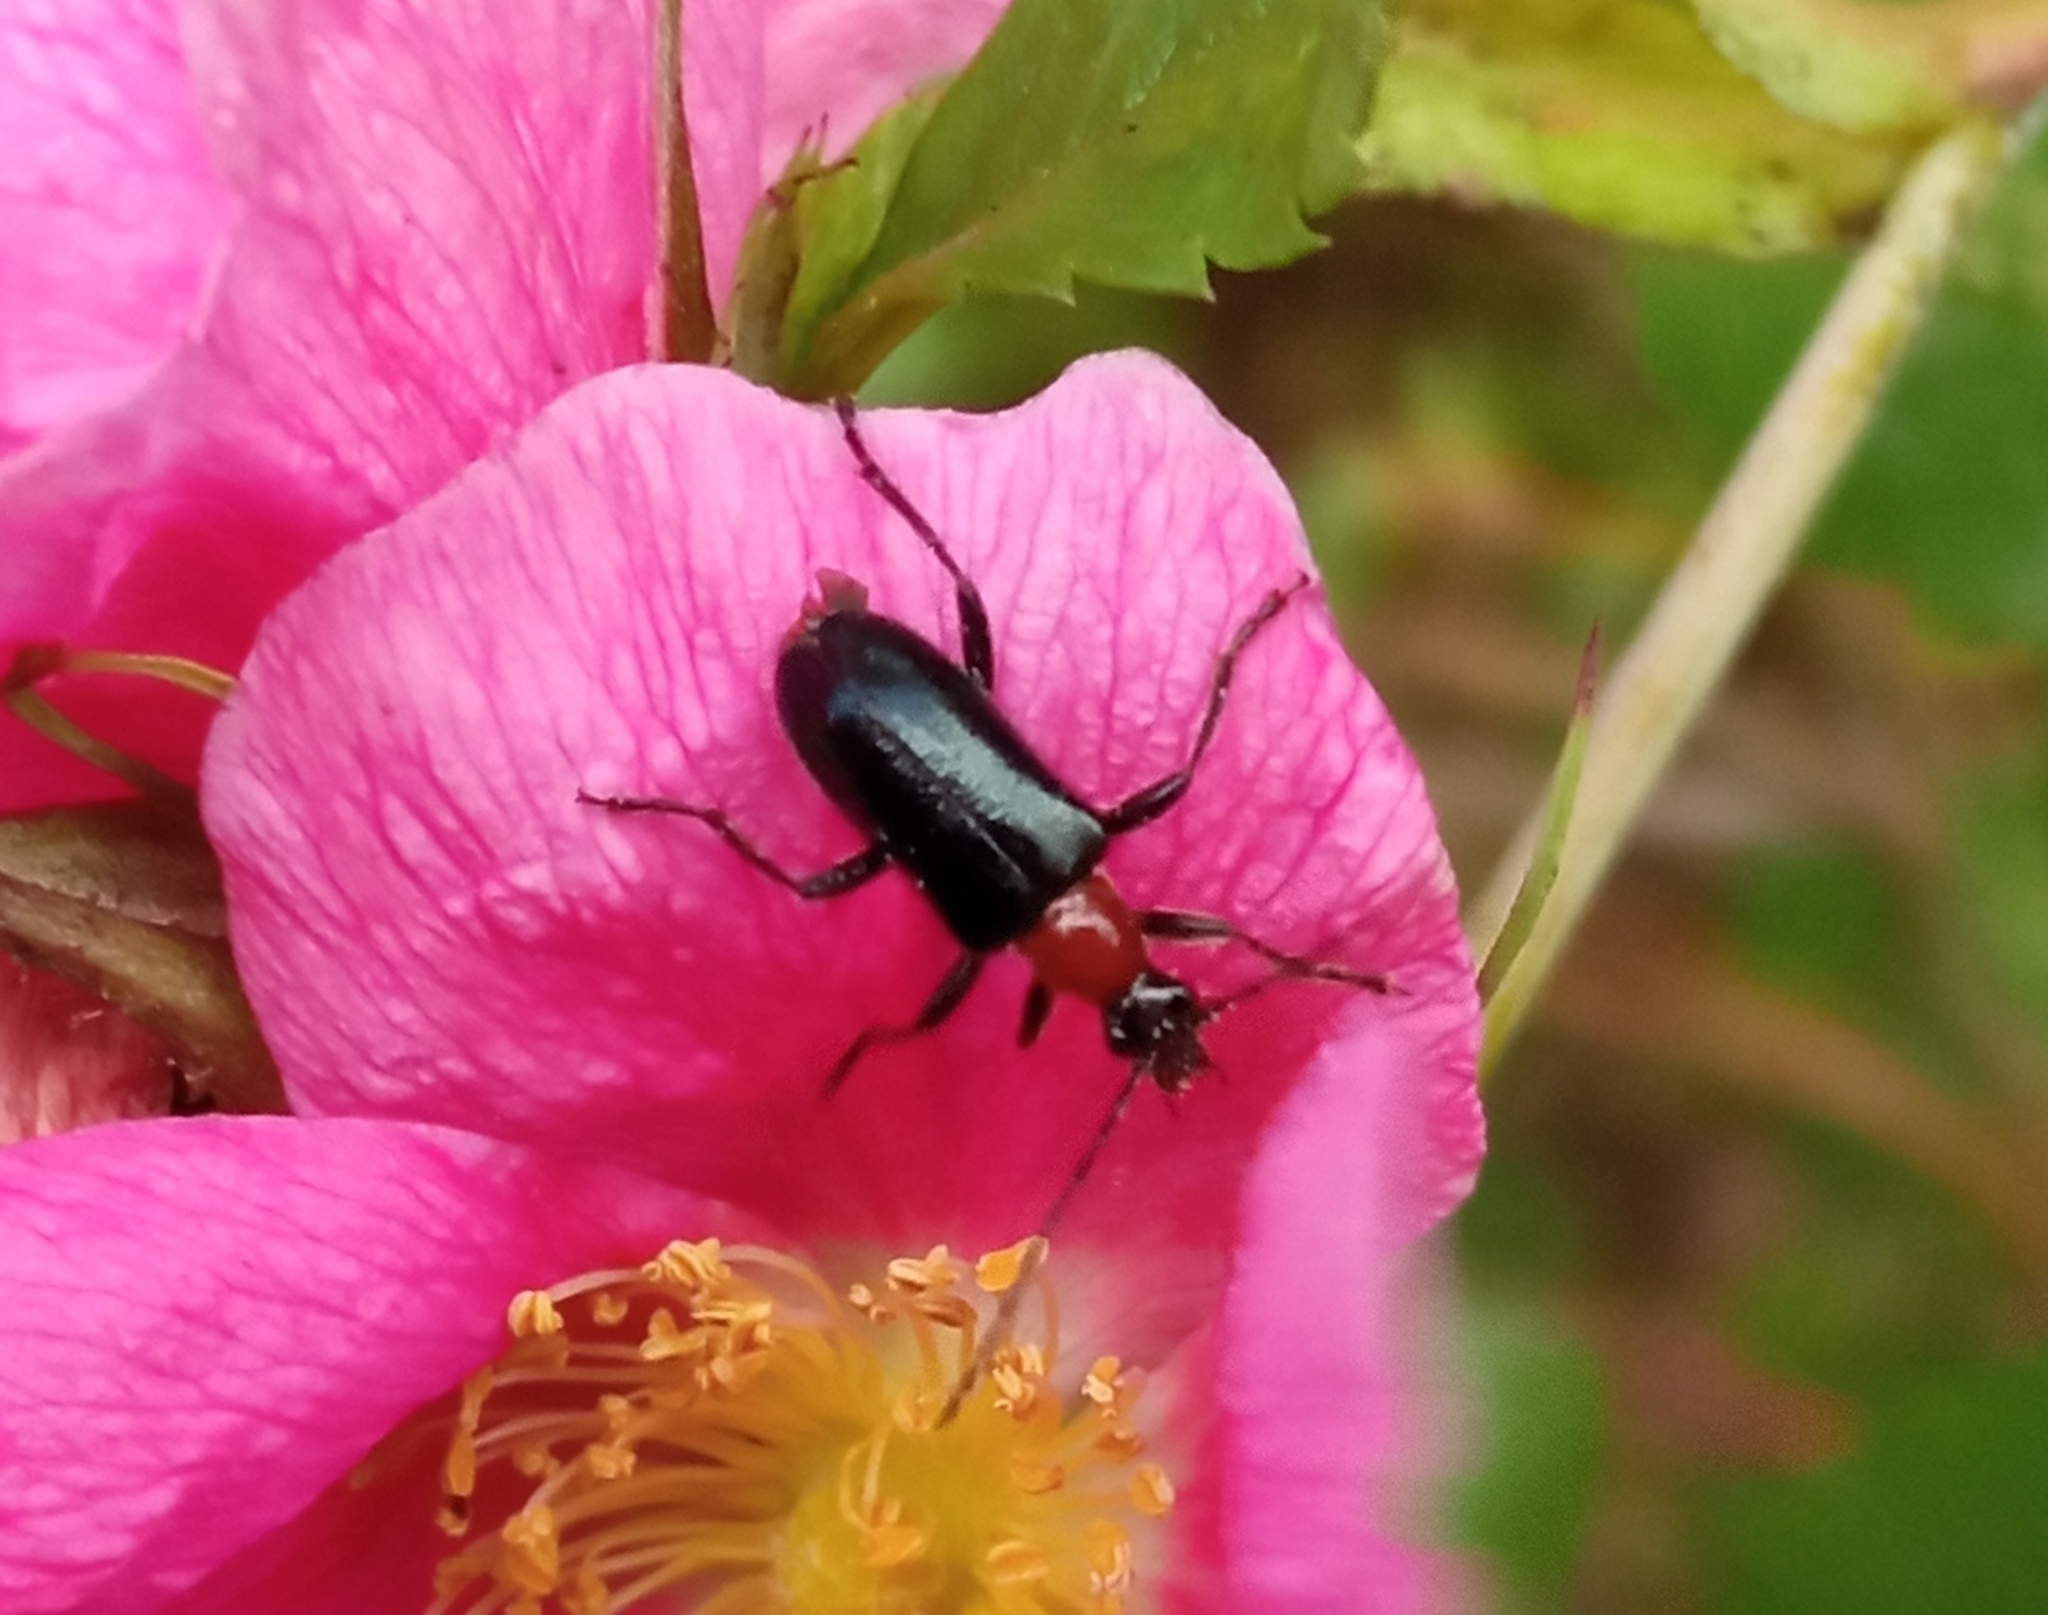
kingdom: Animalia
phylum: Arthropoda
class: Insecta
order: Coleoptera
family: Cerambycidae
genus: Dinoptera
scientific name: Dinoptera collaris
